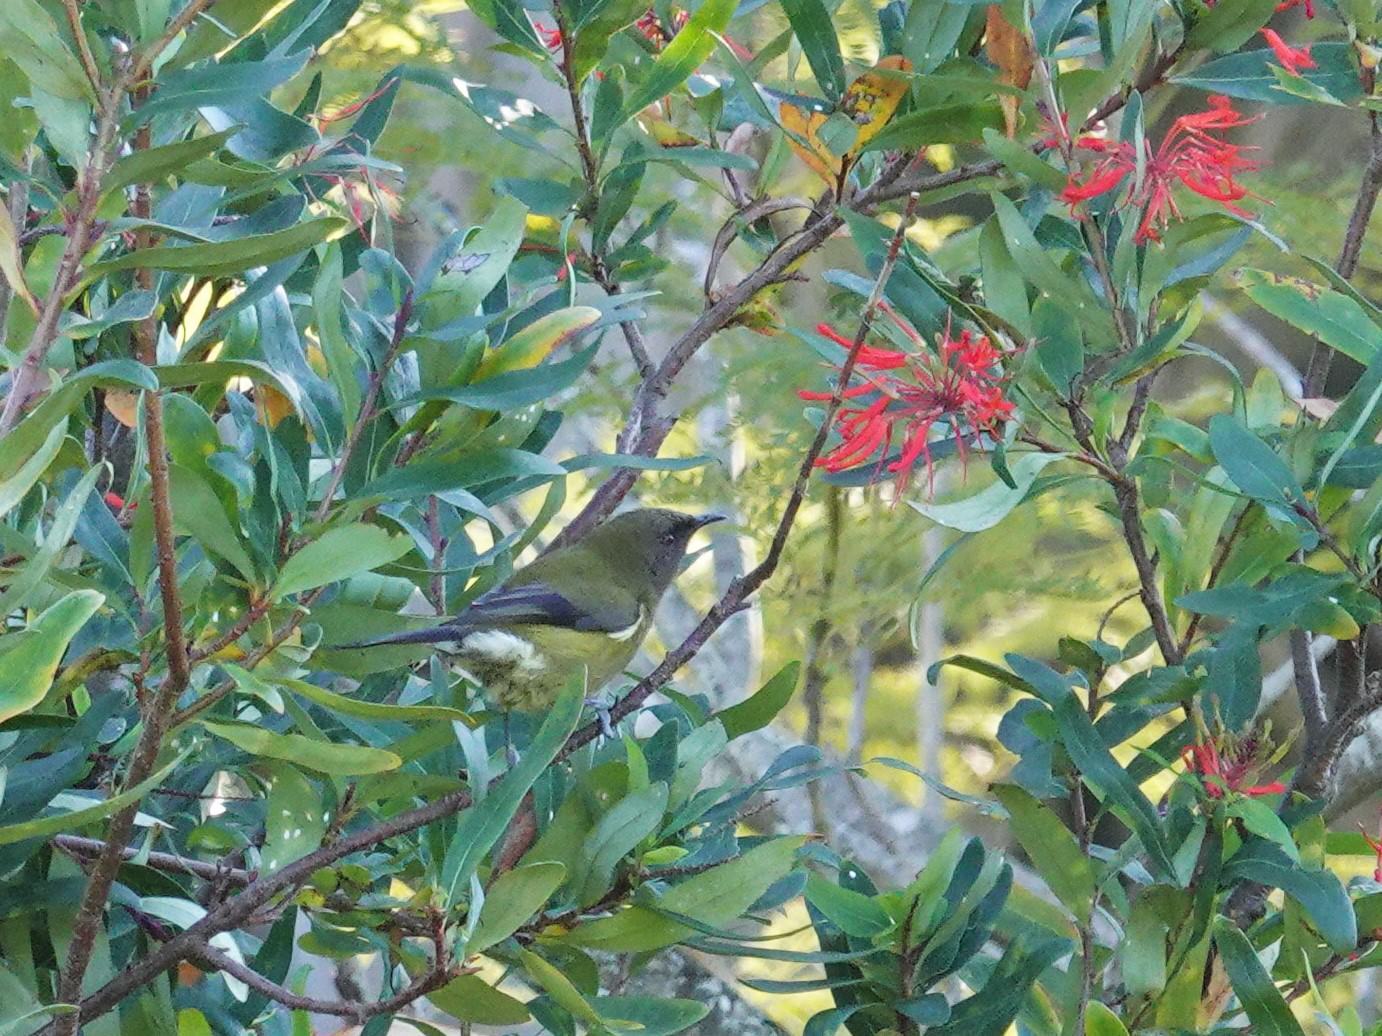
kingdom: Animalia
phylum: Chordata
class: Aves
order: Passeriformes
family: Meliphagidae
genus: Anthornis
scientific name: Anthornis melanura
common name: New zealand bellbird
